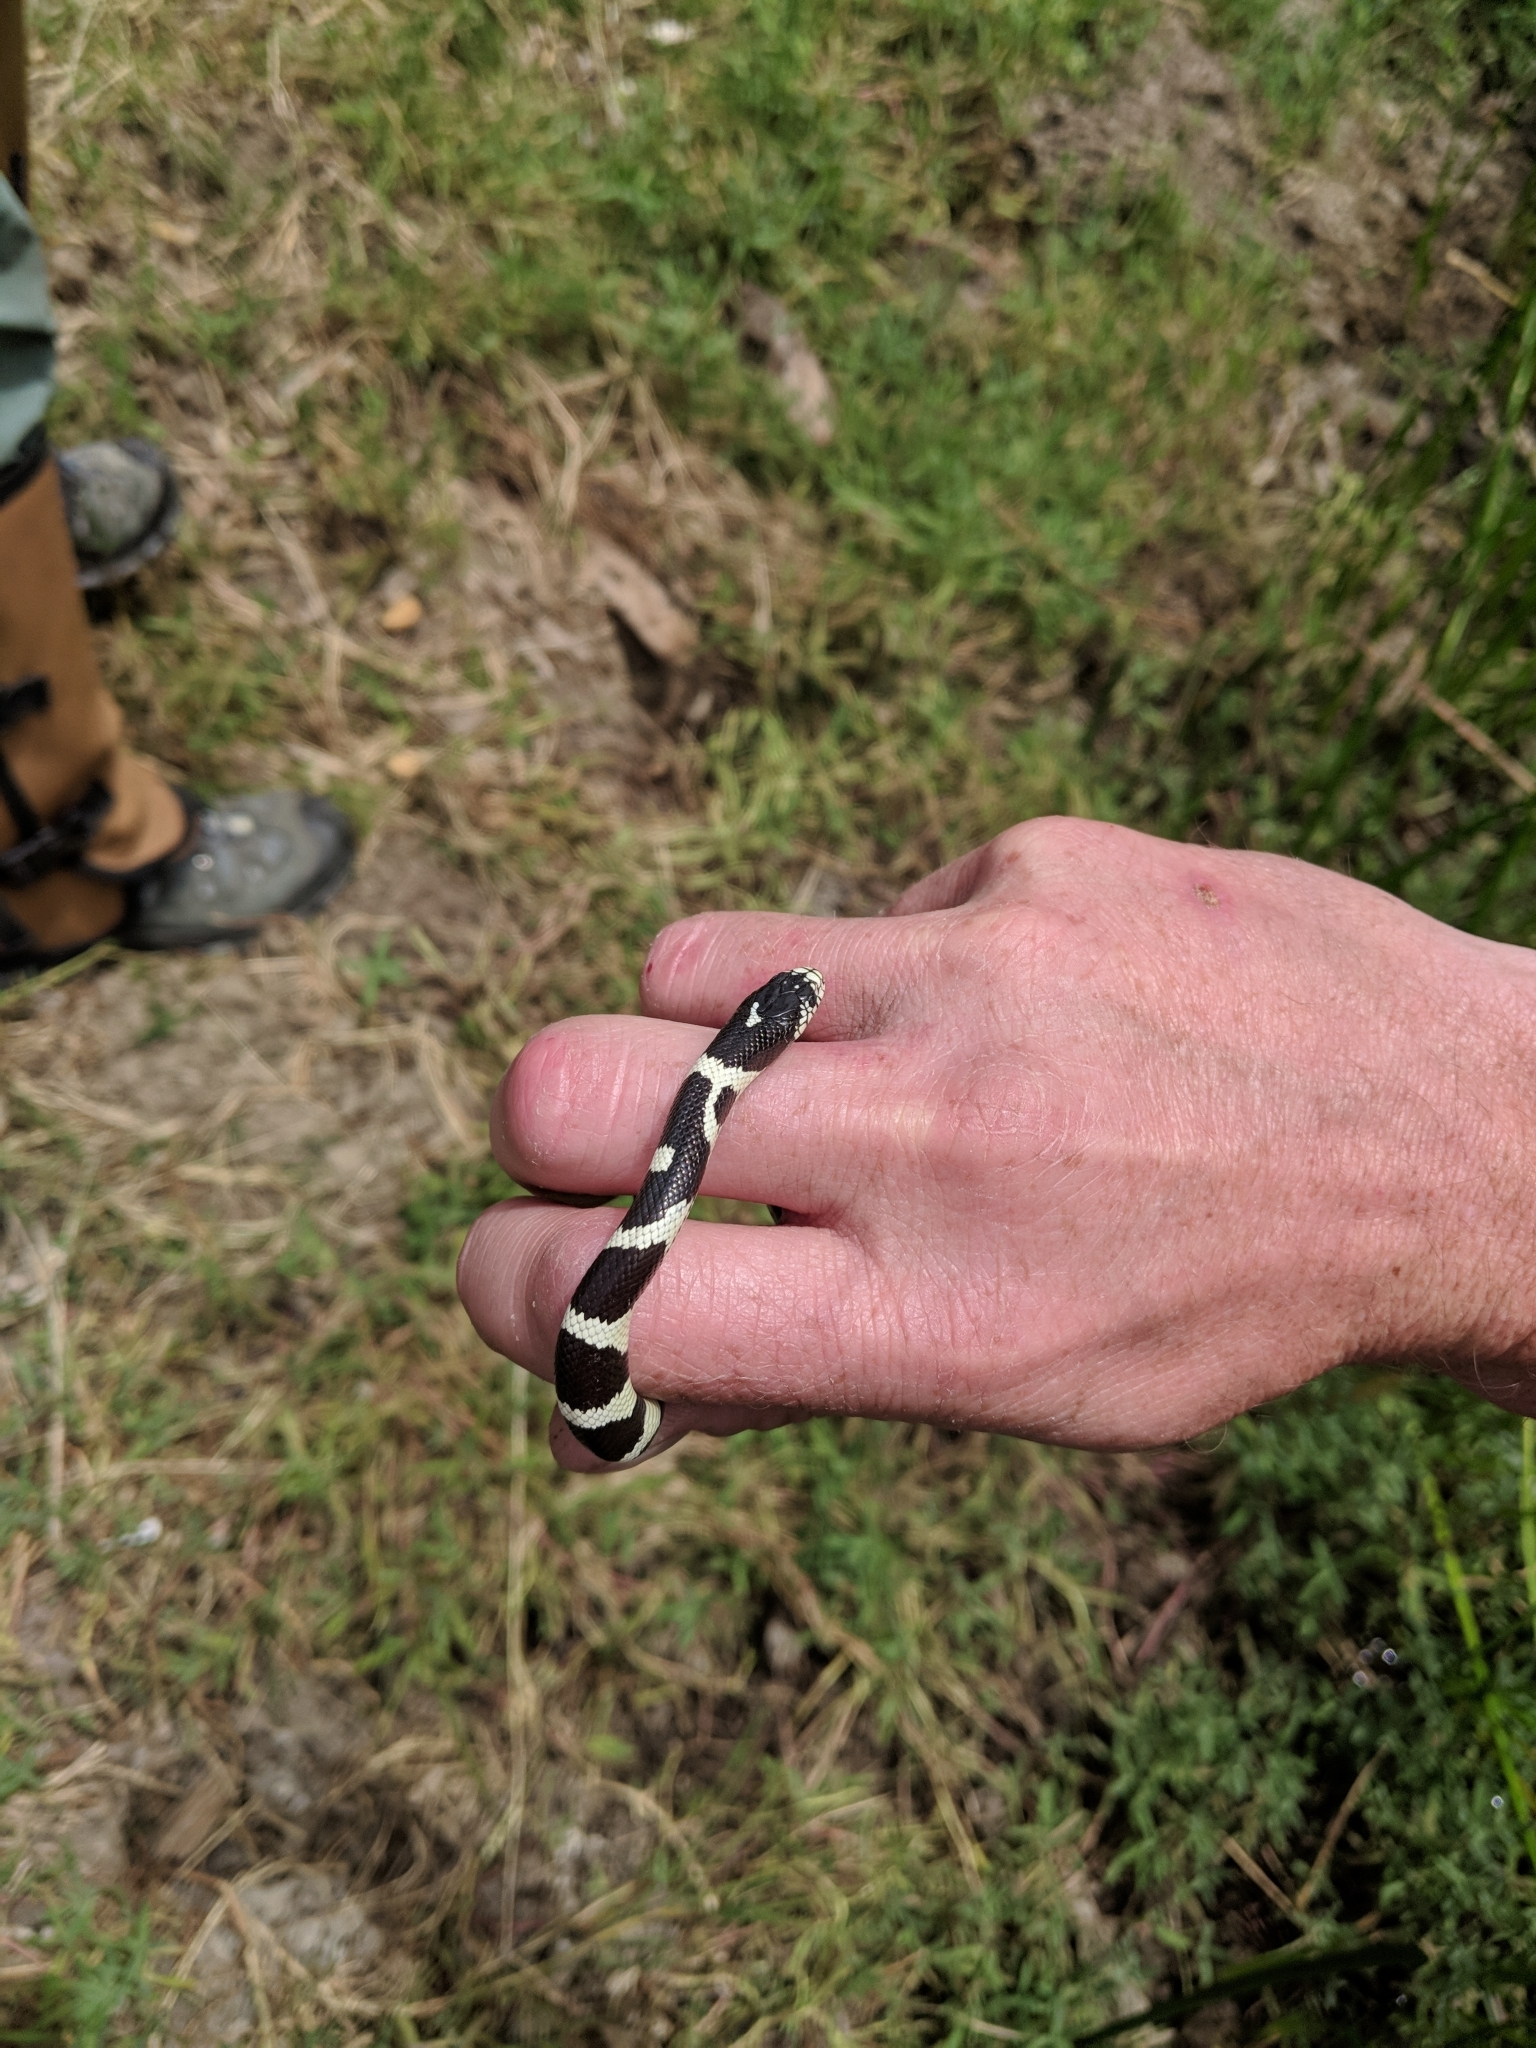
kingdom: Animalia
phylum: Chordata
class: Squamata
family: Colubridae
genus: Lampropeltis
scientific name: Lampropeltis californiae
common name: California kingsnake
